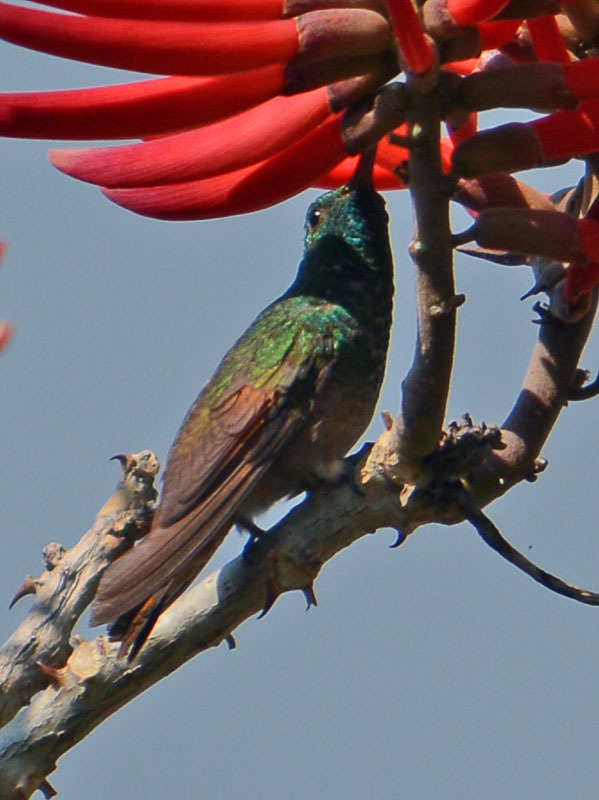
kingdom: Animalia
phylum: Chordata
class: Aves
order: Apodiformes
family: Trochilidae
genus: Saucerottia
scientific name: Saucerottia beryllina
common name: Berylline hummingbird
